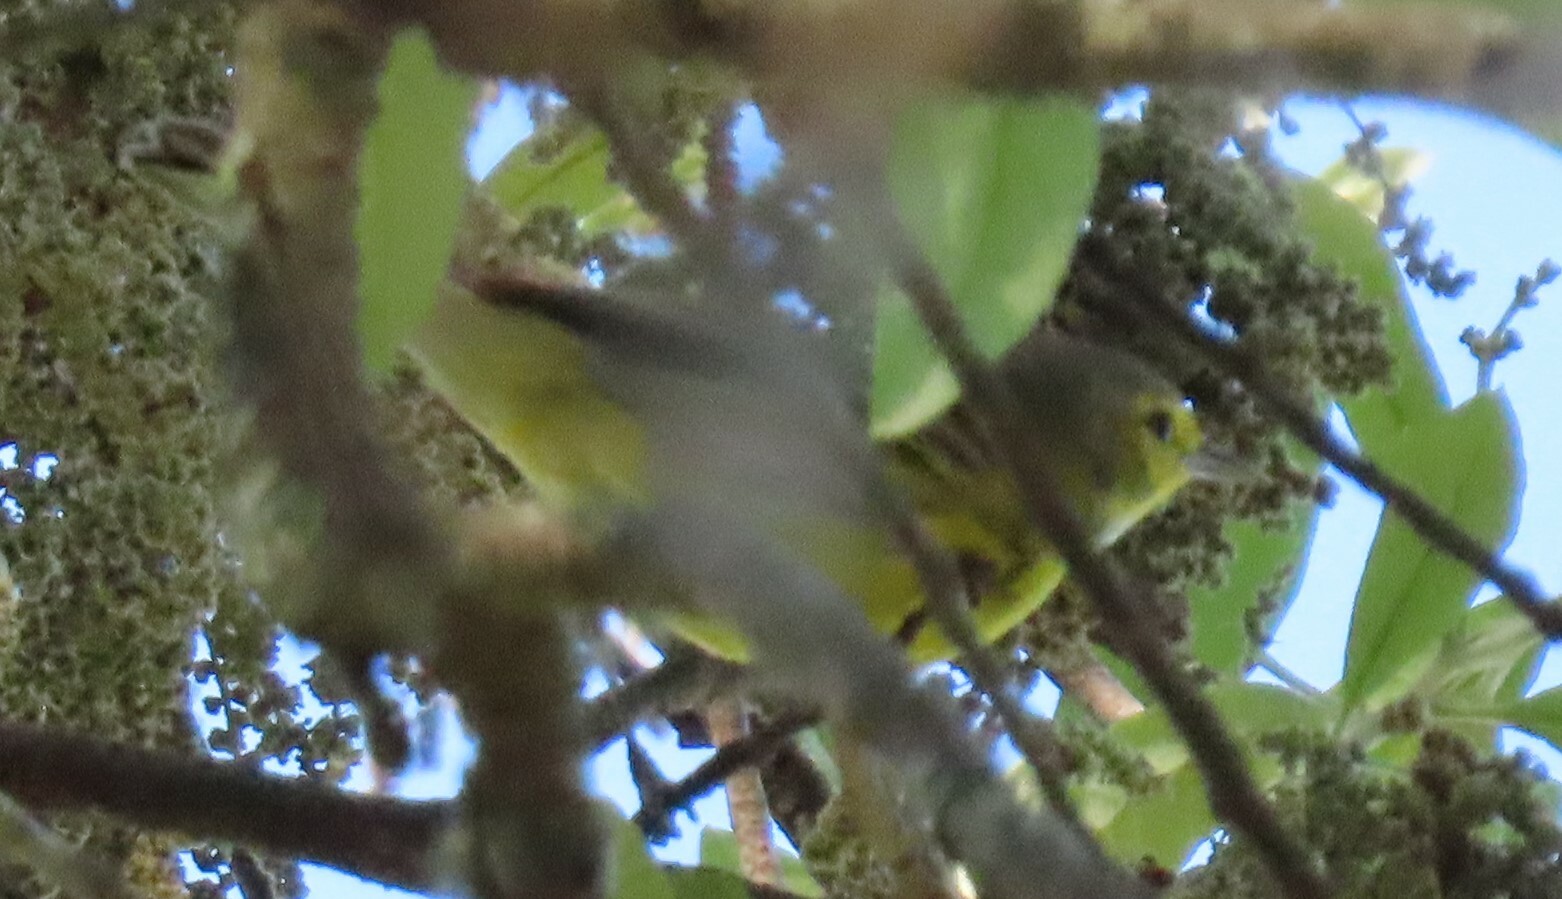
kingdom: Animalia
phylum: Chordata
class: Aves
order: Passeriformes
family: Parulidae
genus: Setophaga
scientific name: Setophaga discolor
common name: Prairie warbler
